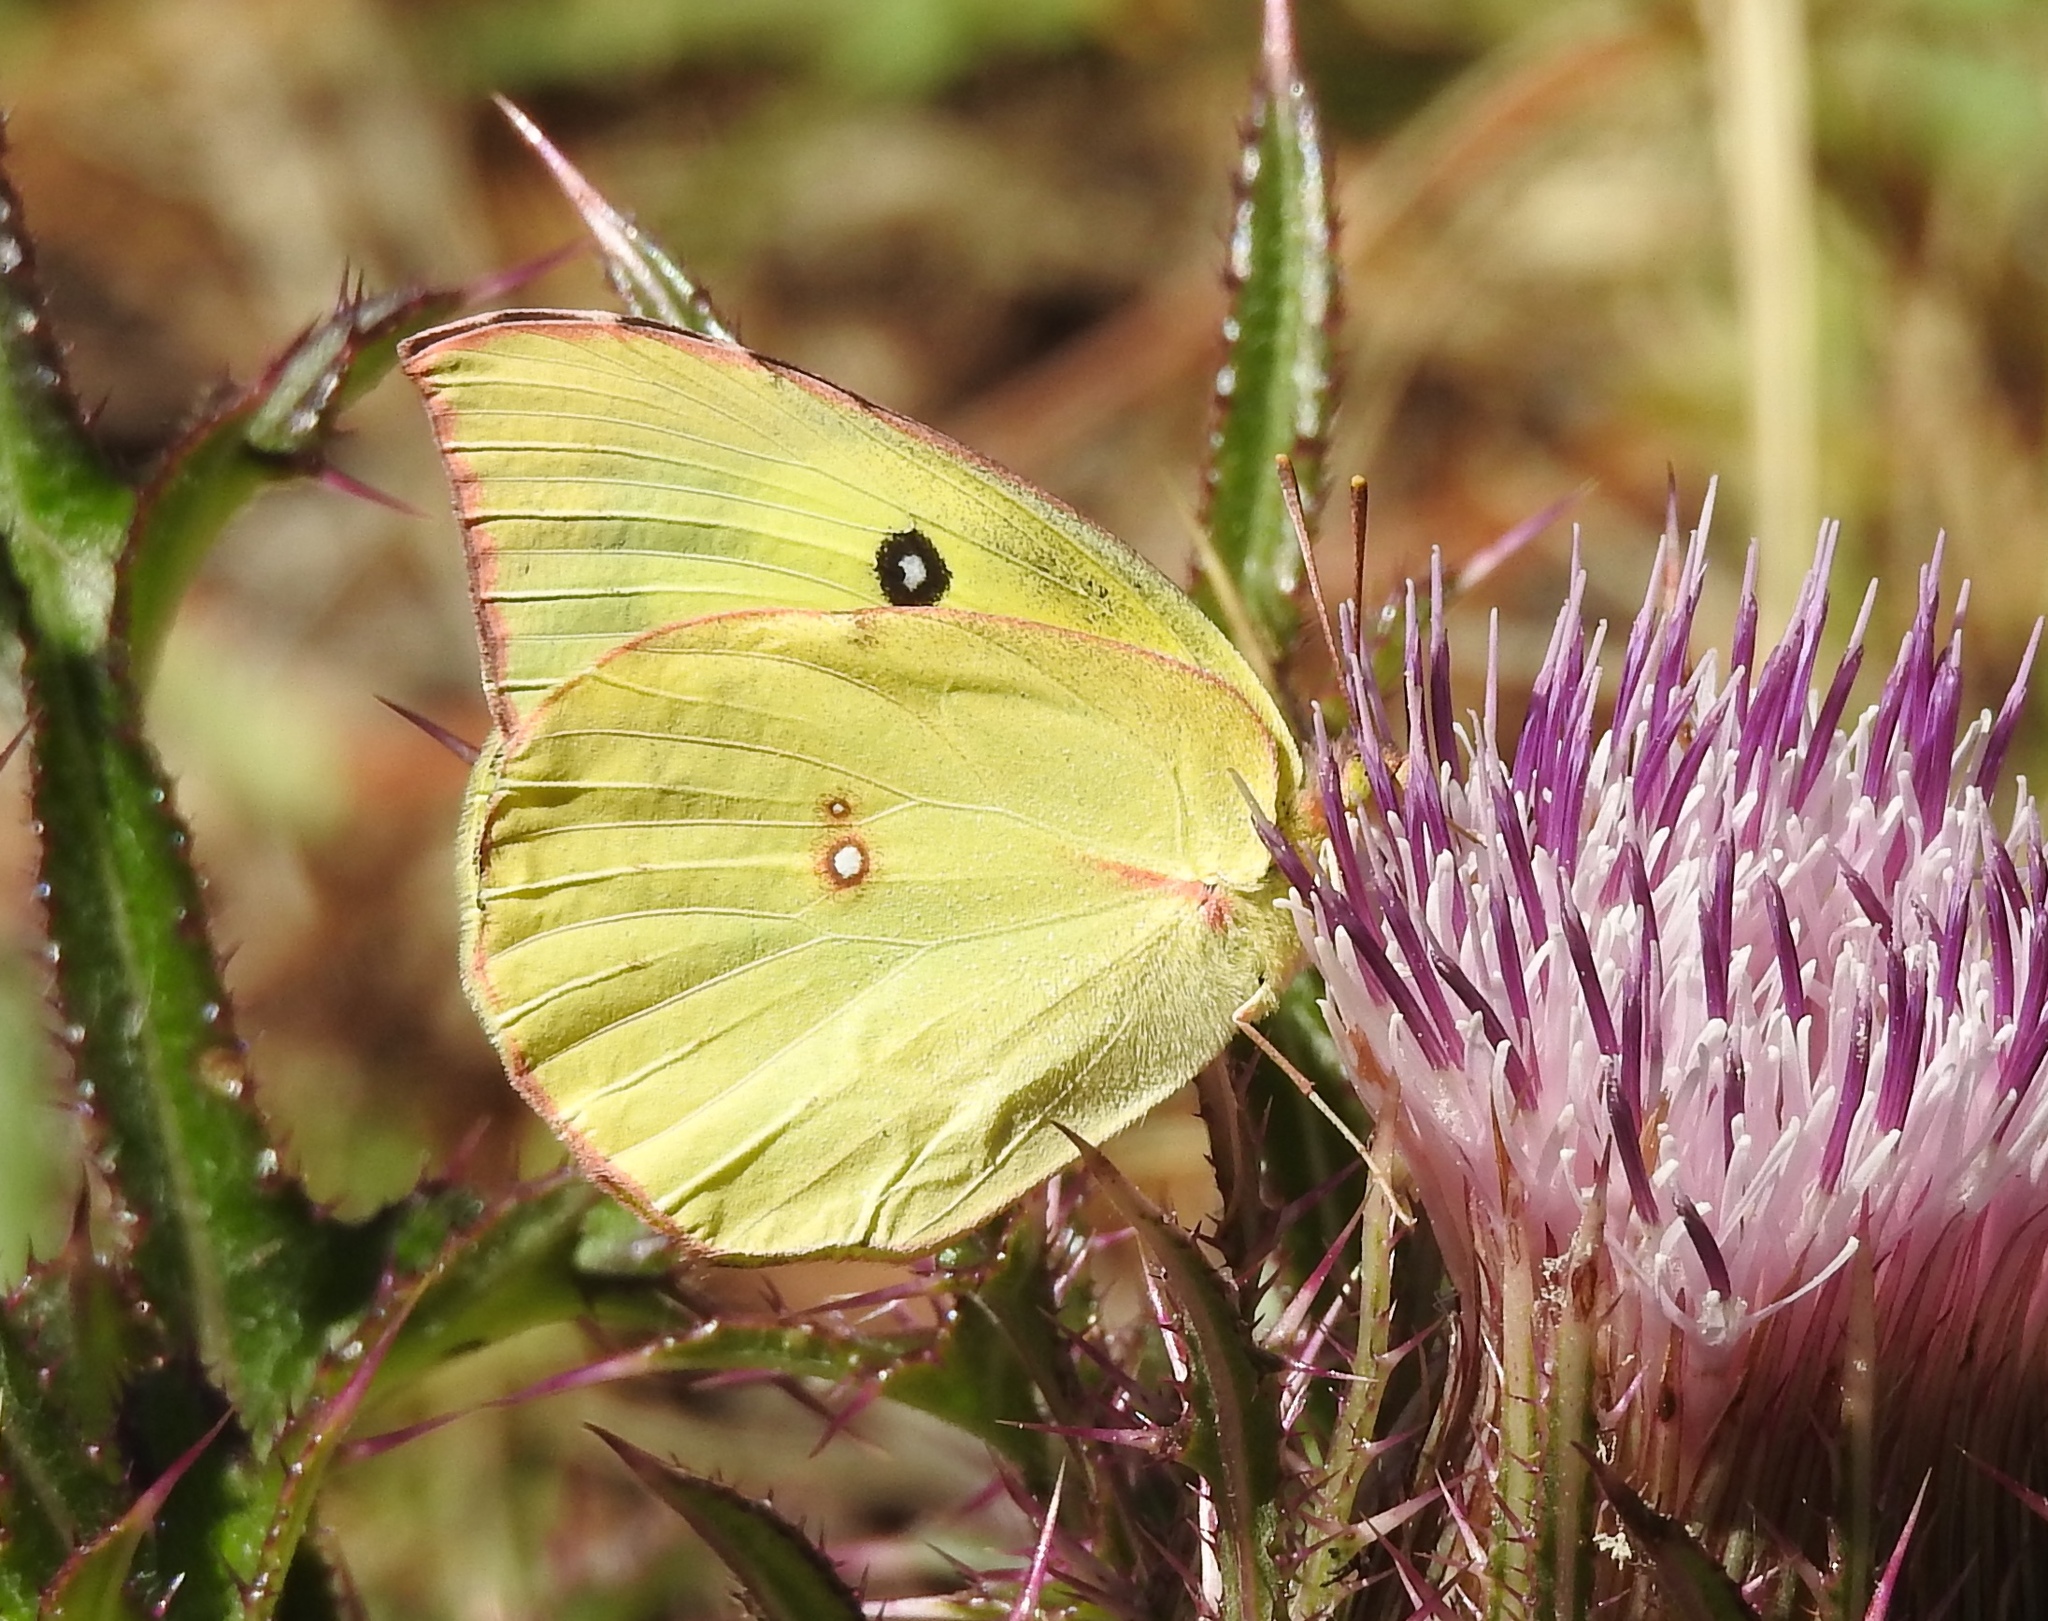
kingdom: Animalia
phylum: Arthropoda
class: Insecta
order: Lepidoptera
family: Pieridae
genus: Zerene
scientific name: Zerene cesonia
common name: Southern dogface
